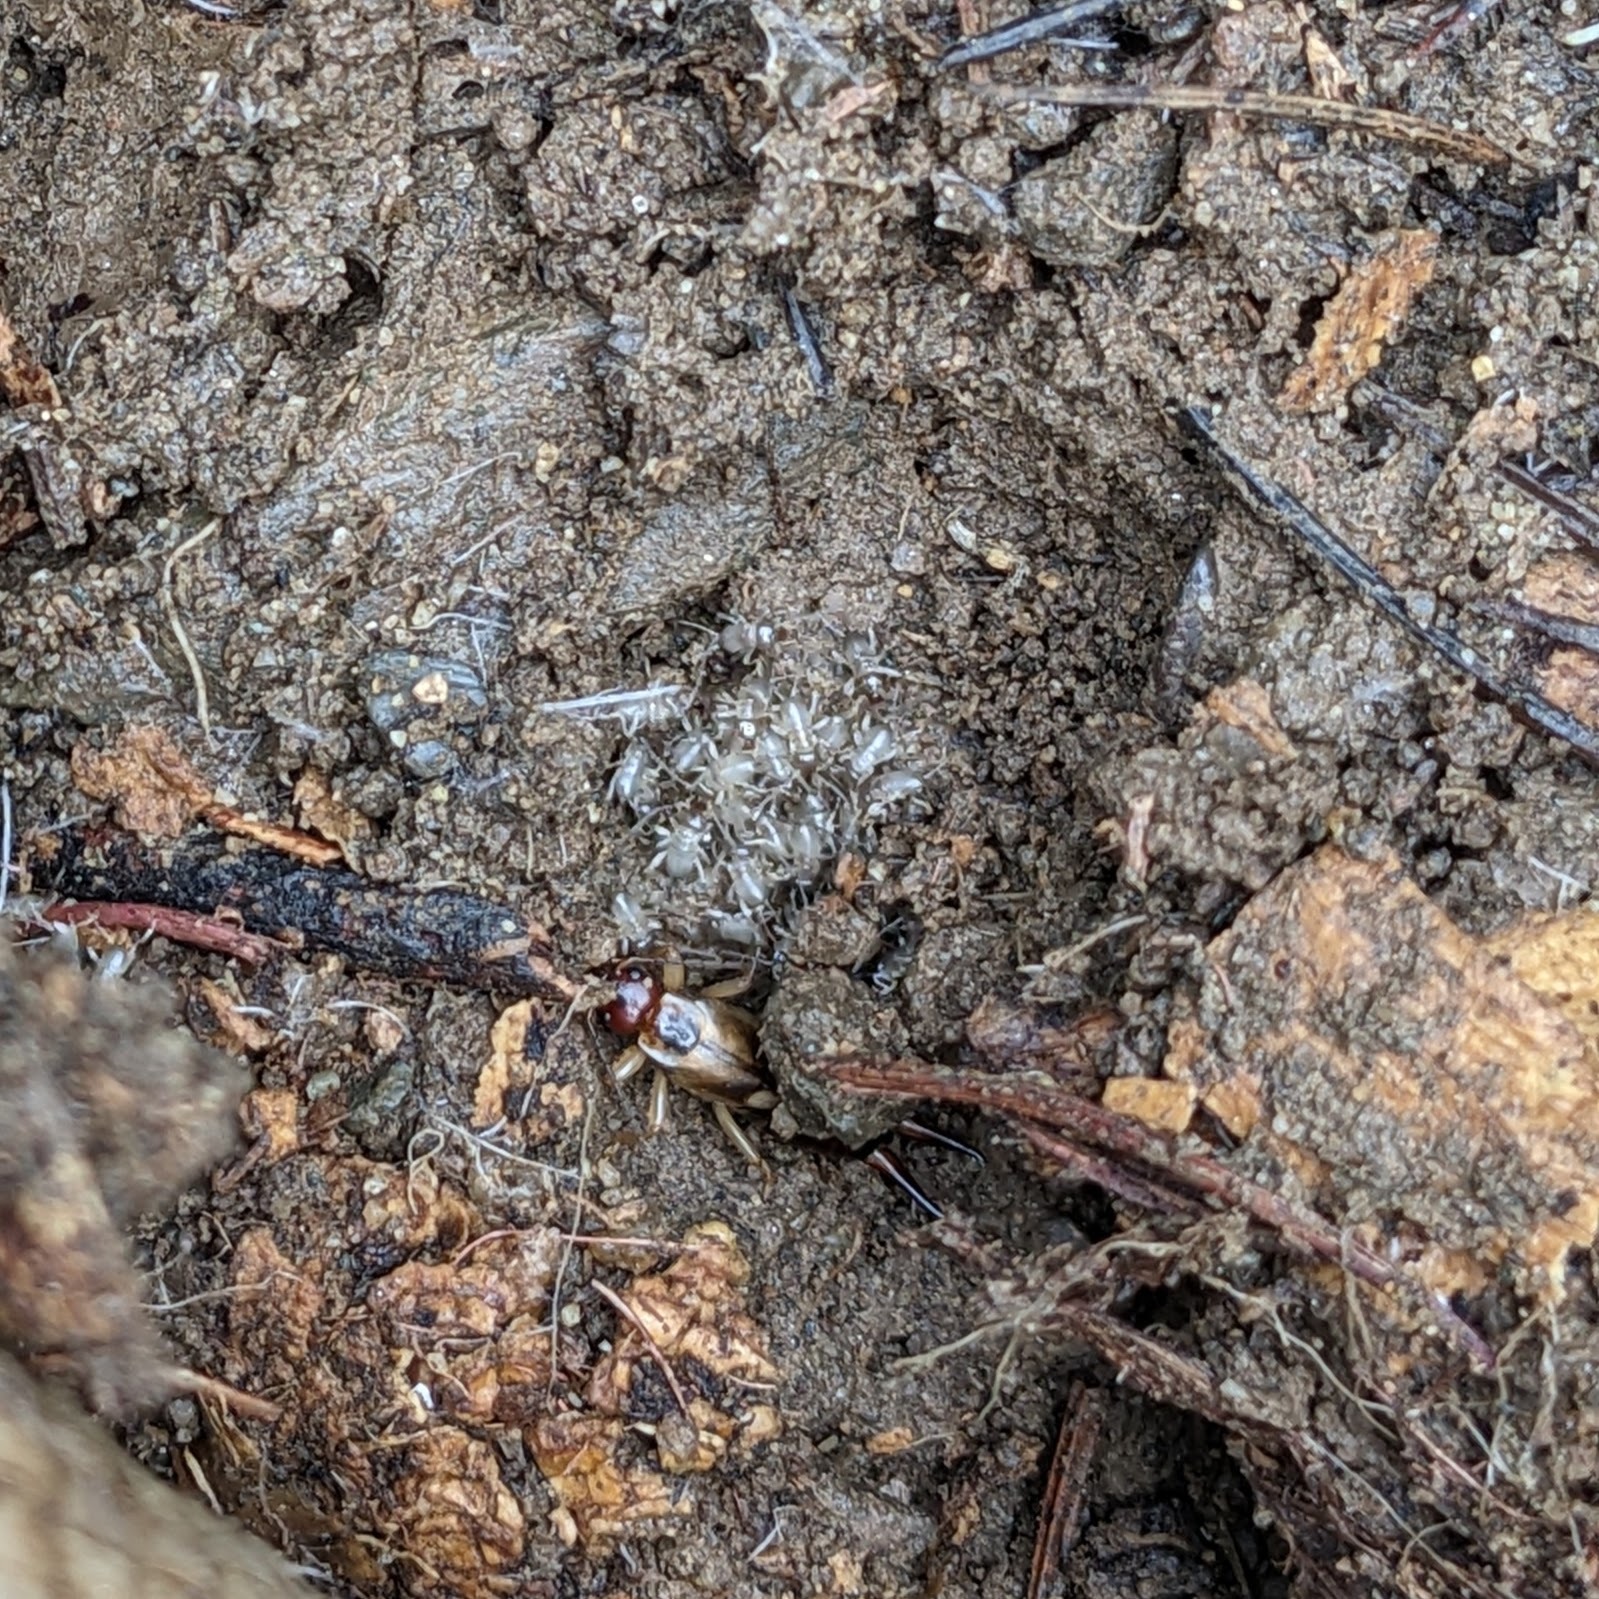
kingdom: Animalia
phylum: Arthropoda
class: Insecta
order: Dermaptera
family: Forficulidae
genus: Forficula
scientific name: Forficula
